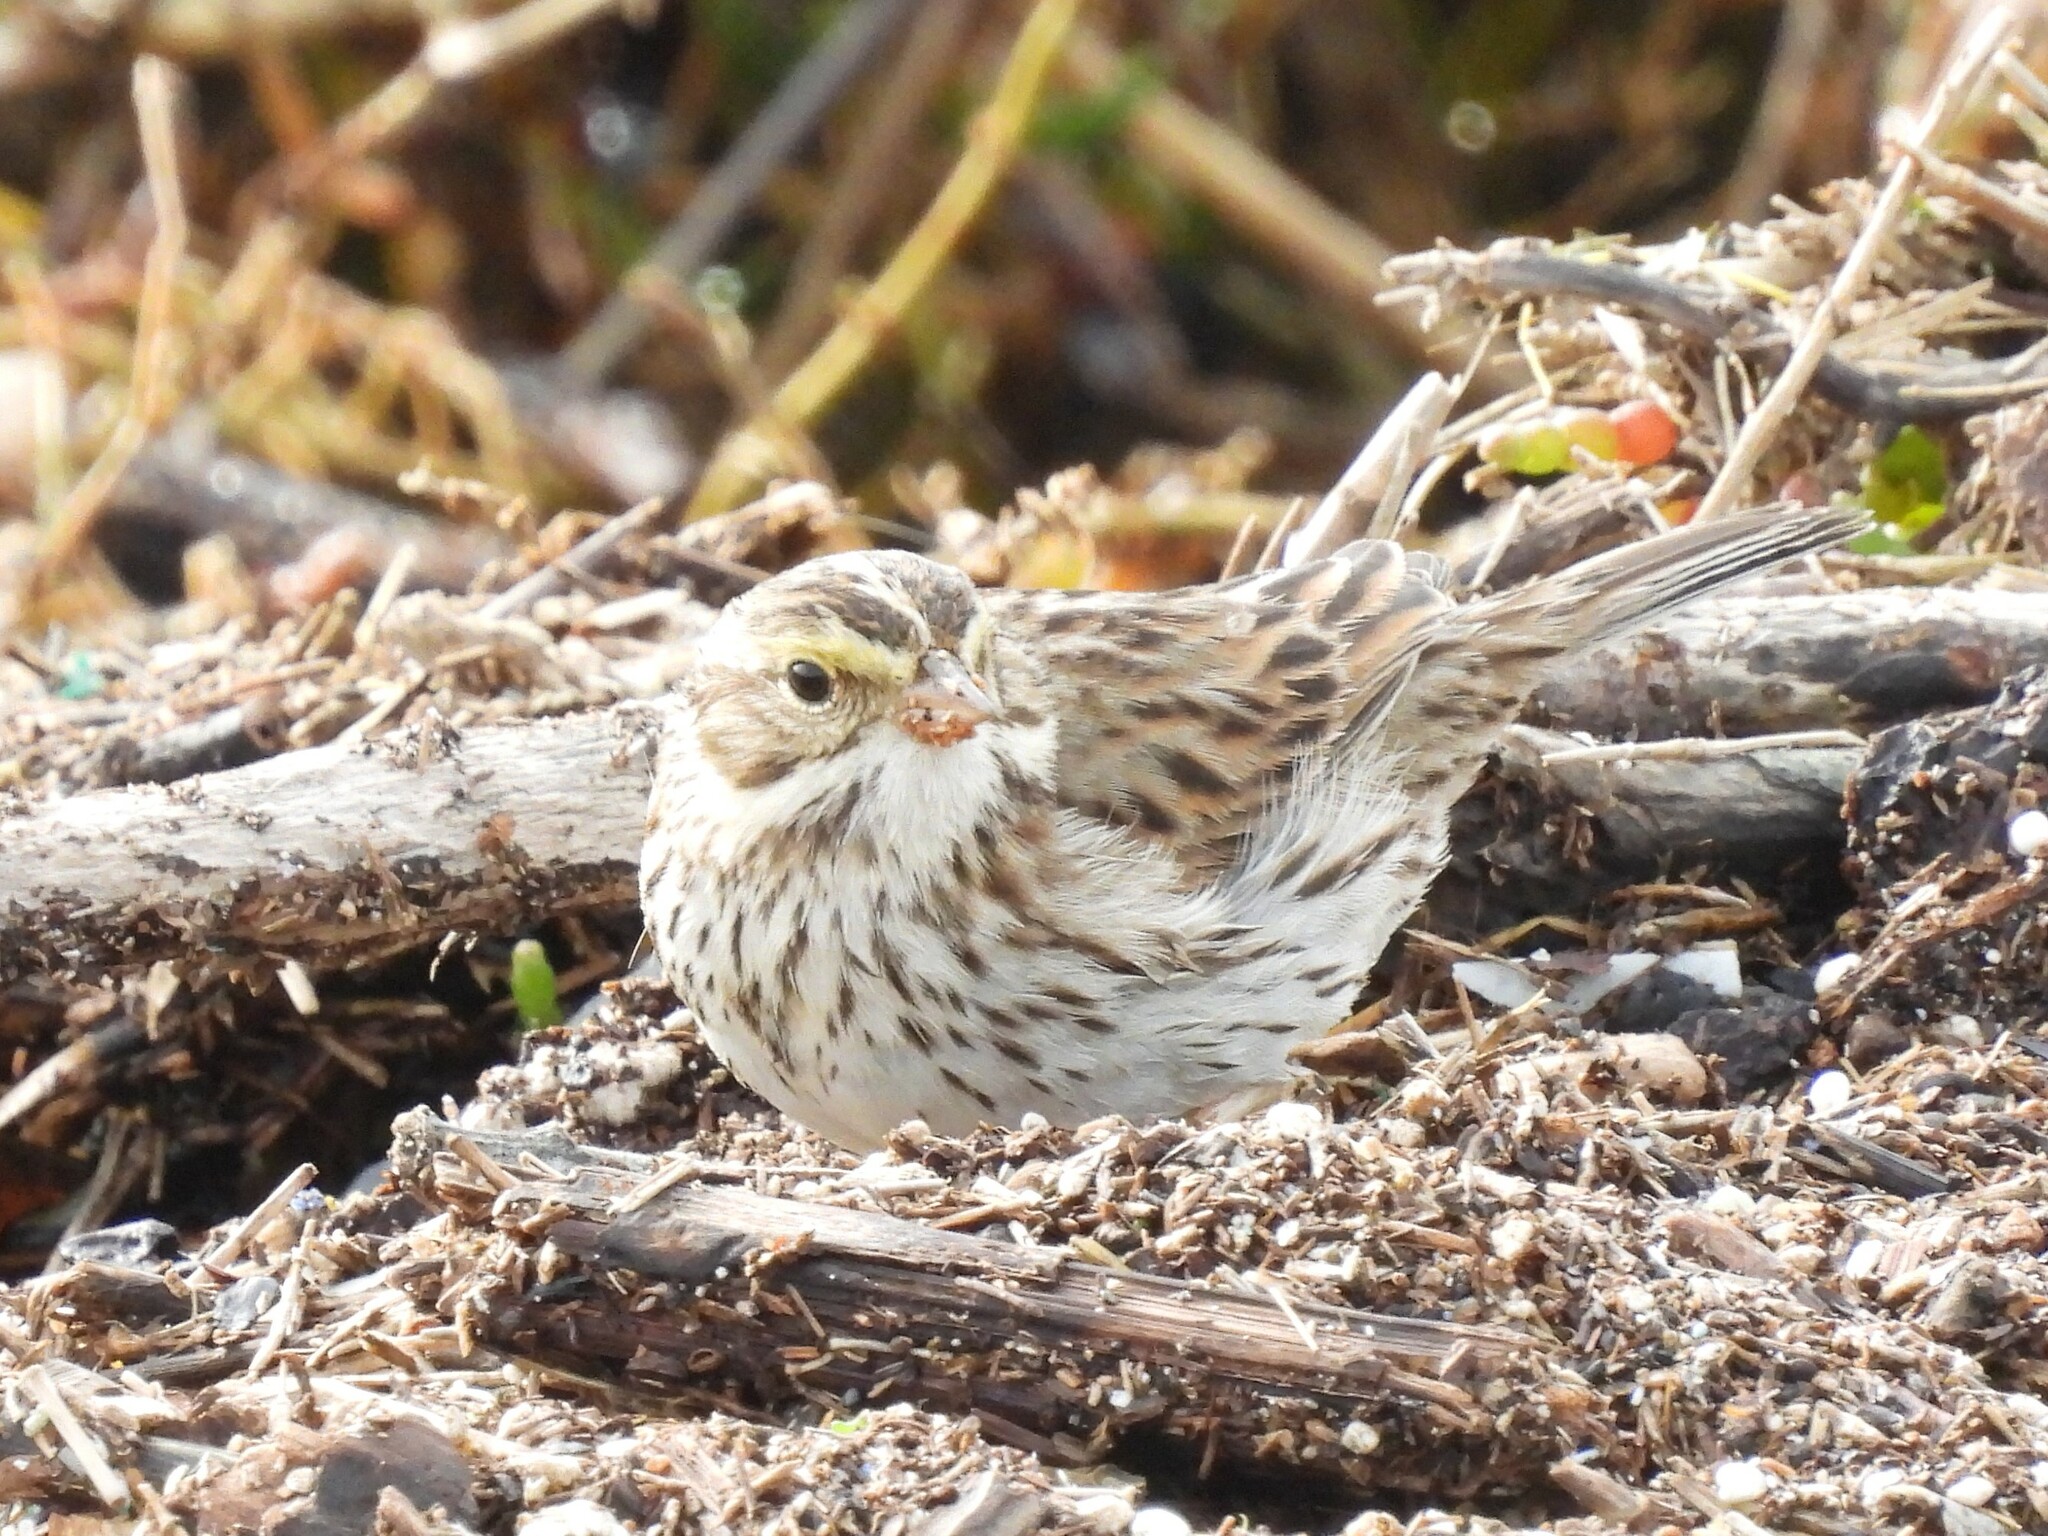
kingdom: Animalia
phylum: Chordata
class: Aves
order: Passeriformes
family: Passerellidae
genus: Passerculus
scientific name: Passerculus sandwichensis
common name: Savannah sparrow
